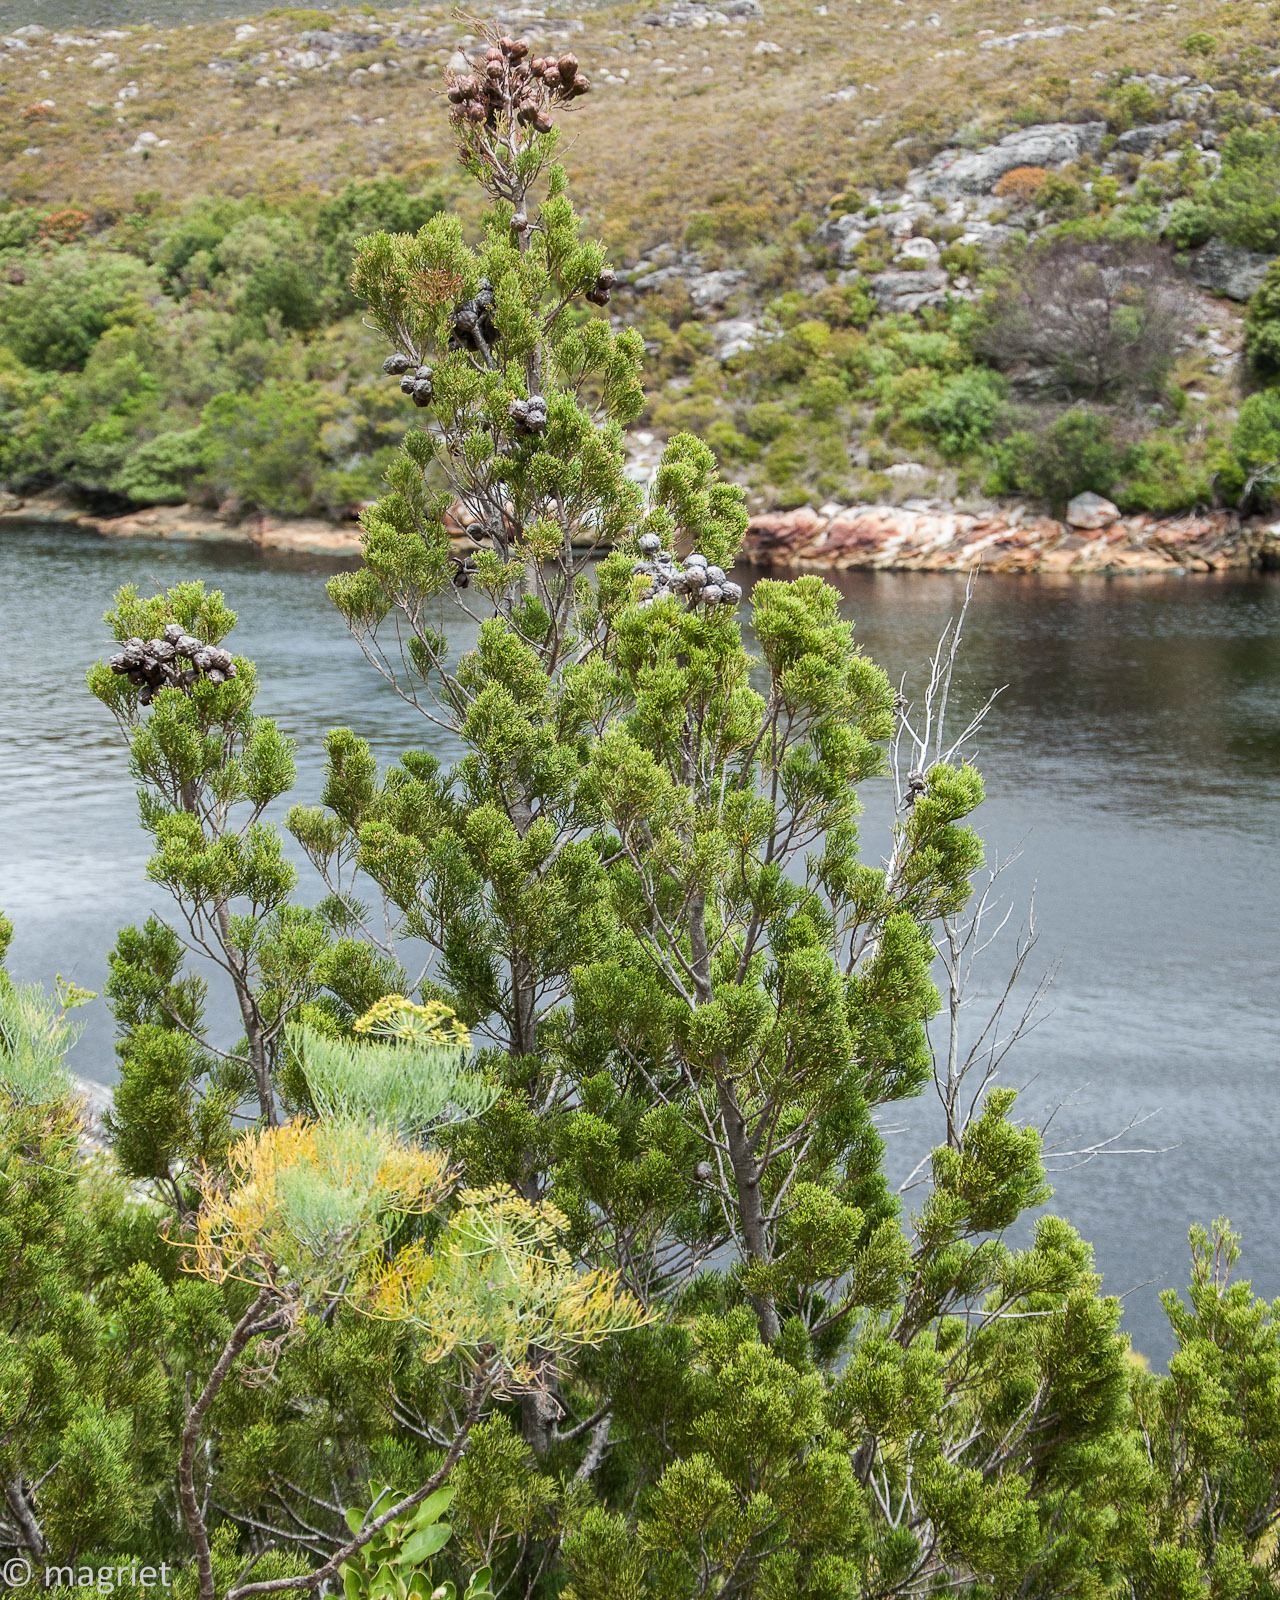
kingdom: Plantae
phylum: Tracheophyta
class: Pinopsida
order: Pinales
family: Cupressaceae
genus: Widdringtonia
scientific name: Widdringtonia nodiflora
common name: Cape cypress
